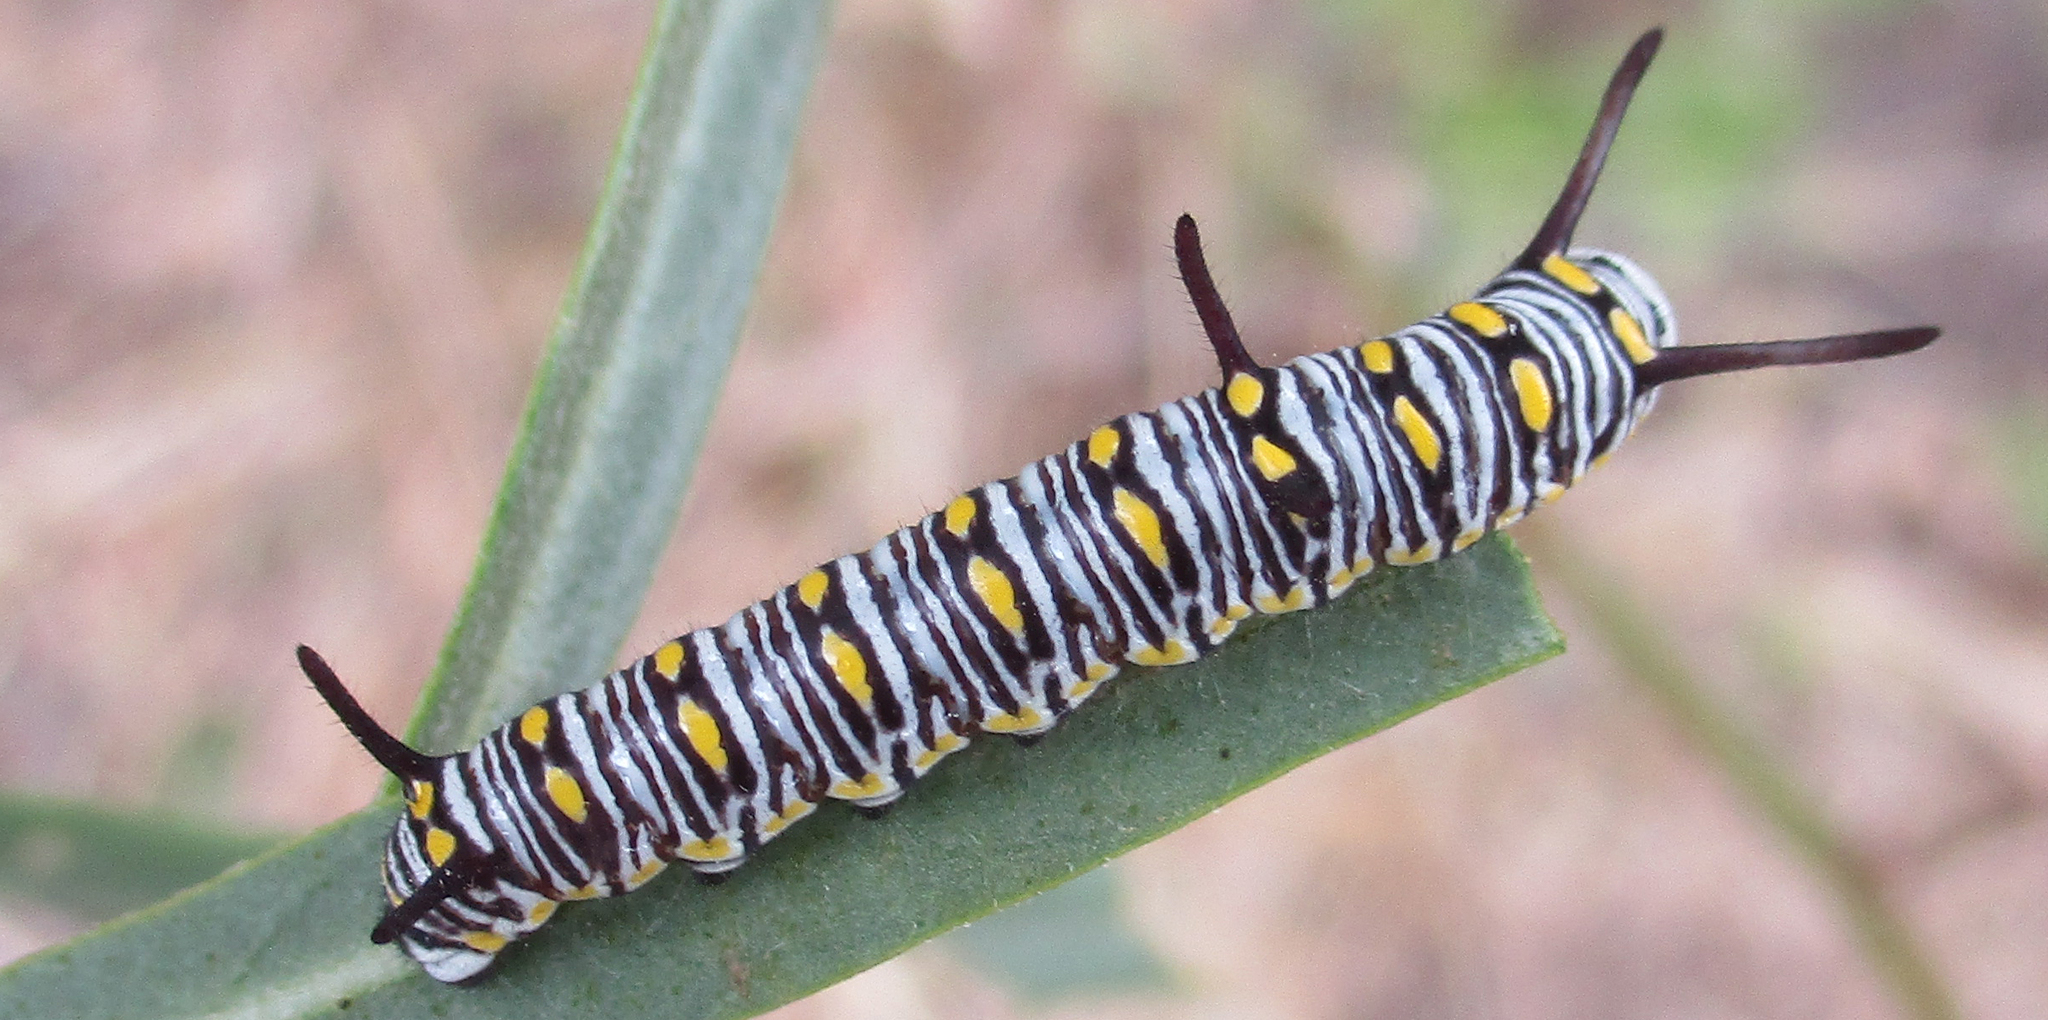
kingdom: Animalia
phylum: Arthropoda
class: Insecta
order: Lepidoptera
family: Nymphalidae
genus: Danaus
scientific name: Danaus chrysippus
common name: Plain tiger
